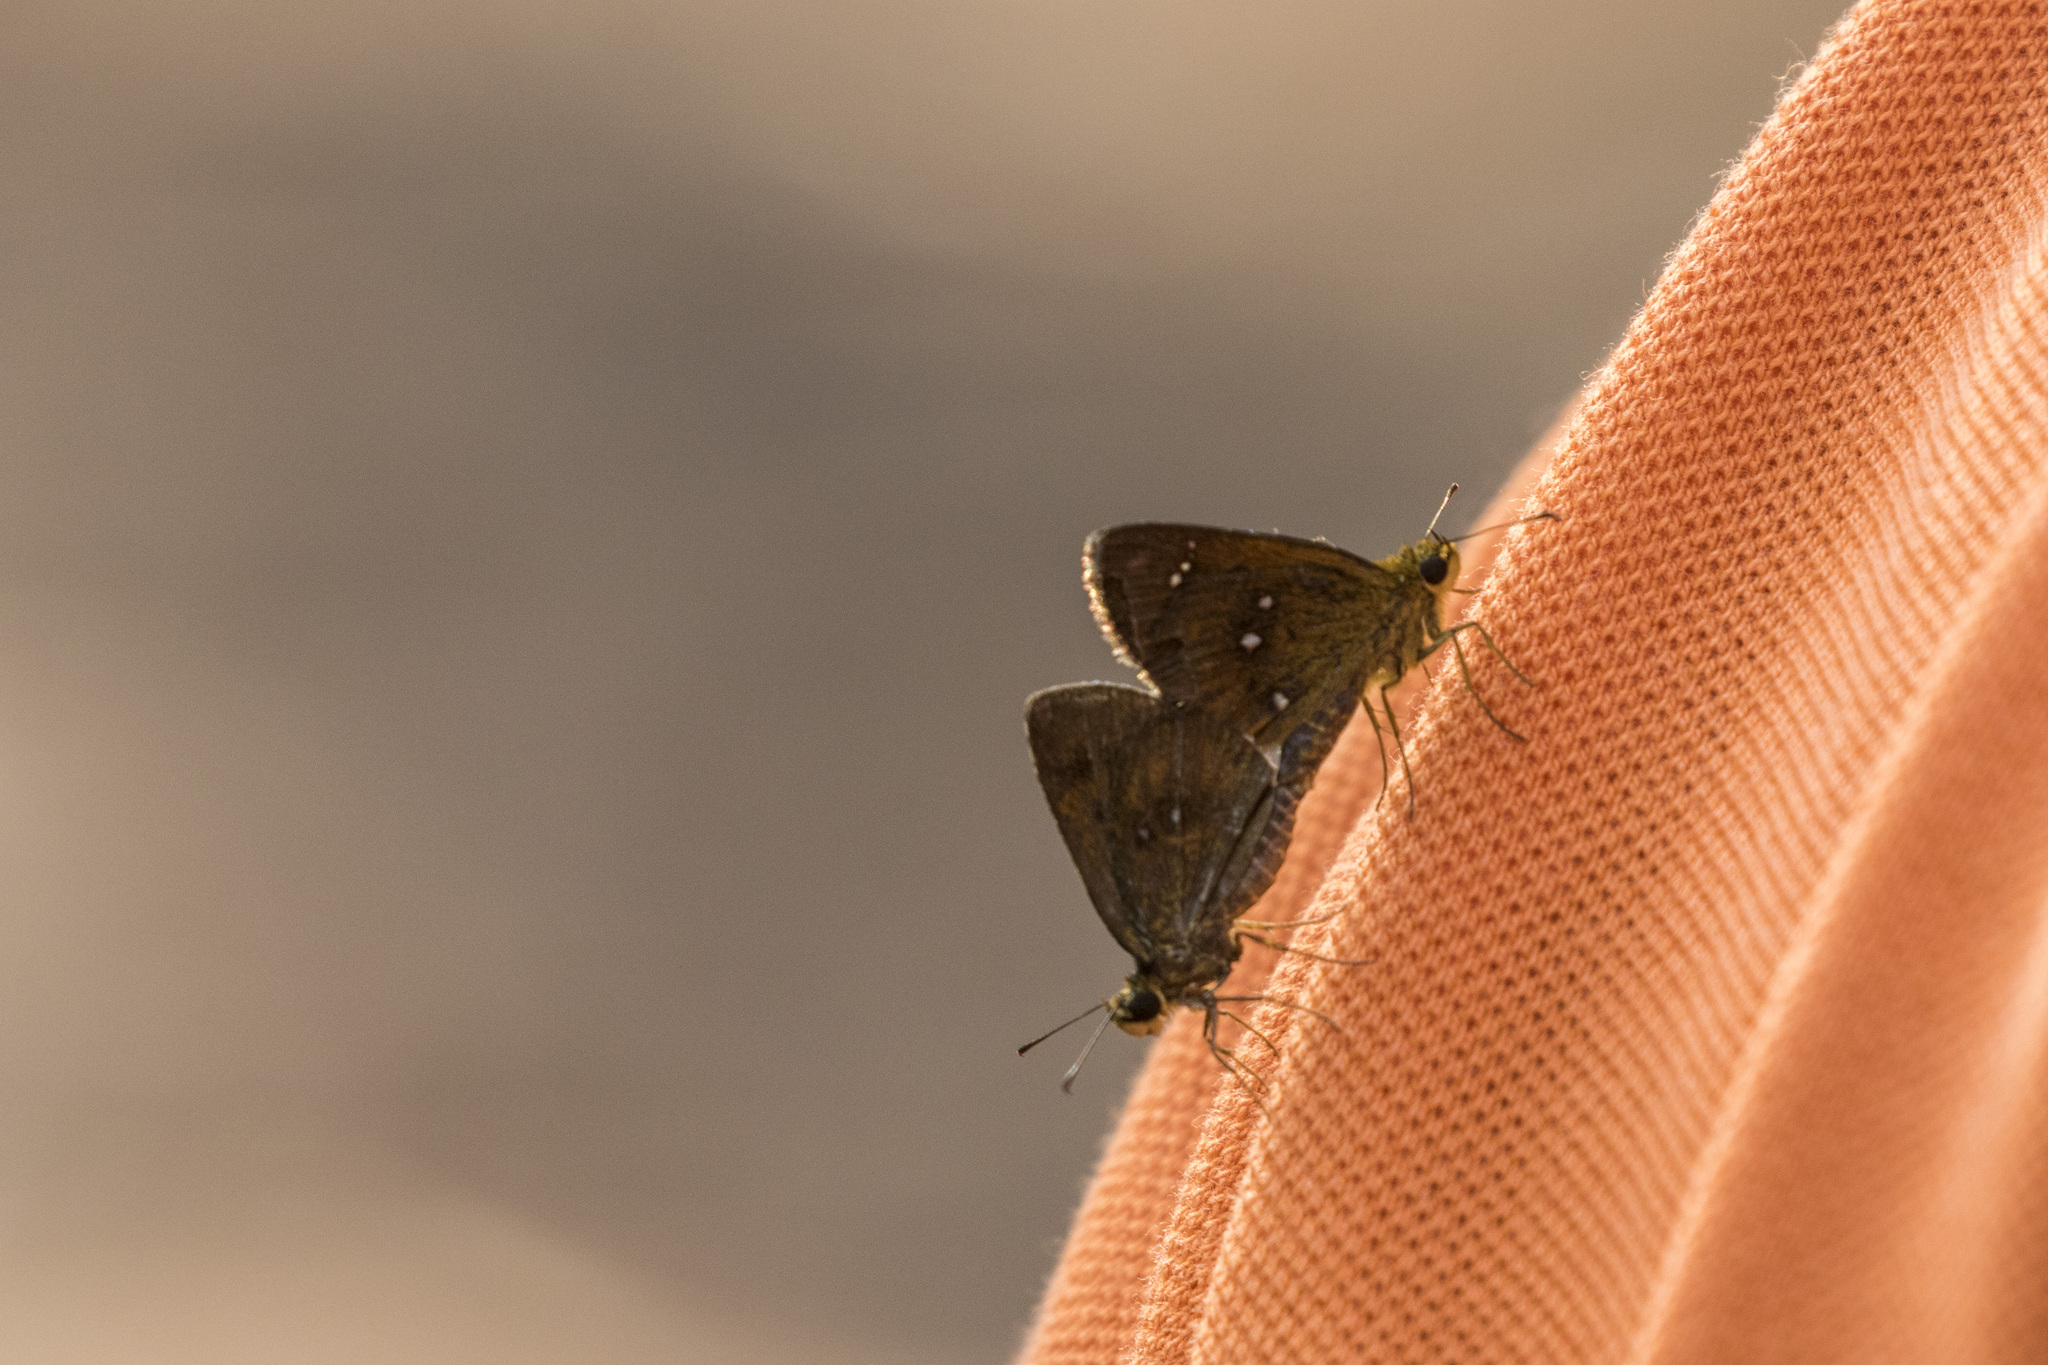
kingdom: Animalia
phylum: Arthropoda
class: Insecta
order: Lepidoptera
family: Hesperiidae
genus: Iambrix
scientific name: Iambrix salsala
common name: Chestnut bob
